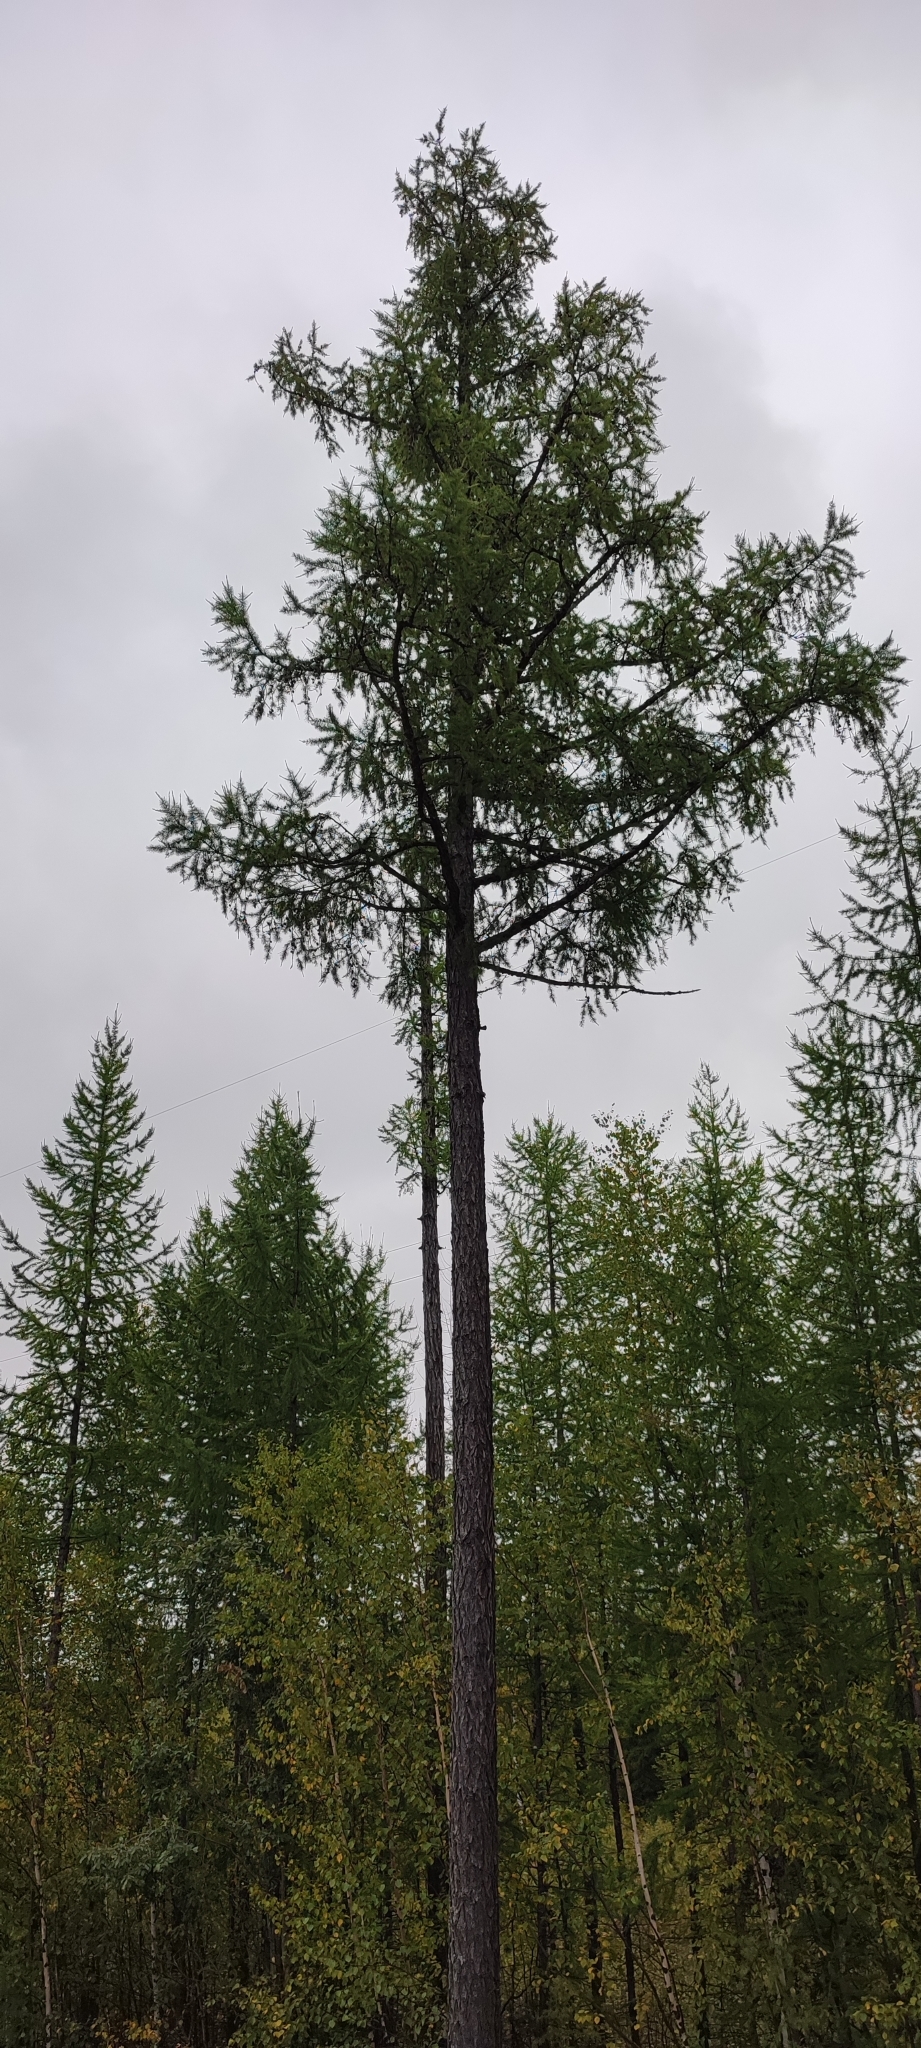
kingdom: Plantae
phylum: Tracheophyta
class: Pinopsida
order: Pinales
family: Pinaceae
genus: Larix
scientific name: Larix sibirica
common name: Siberian larch
